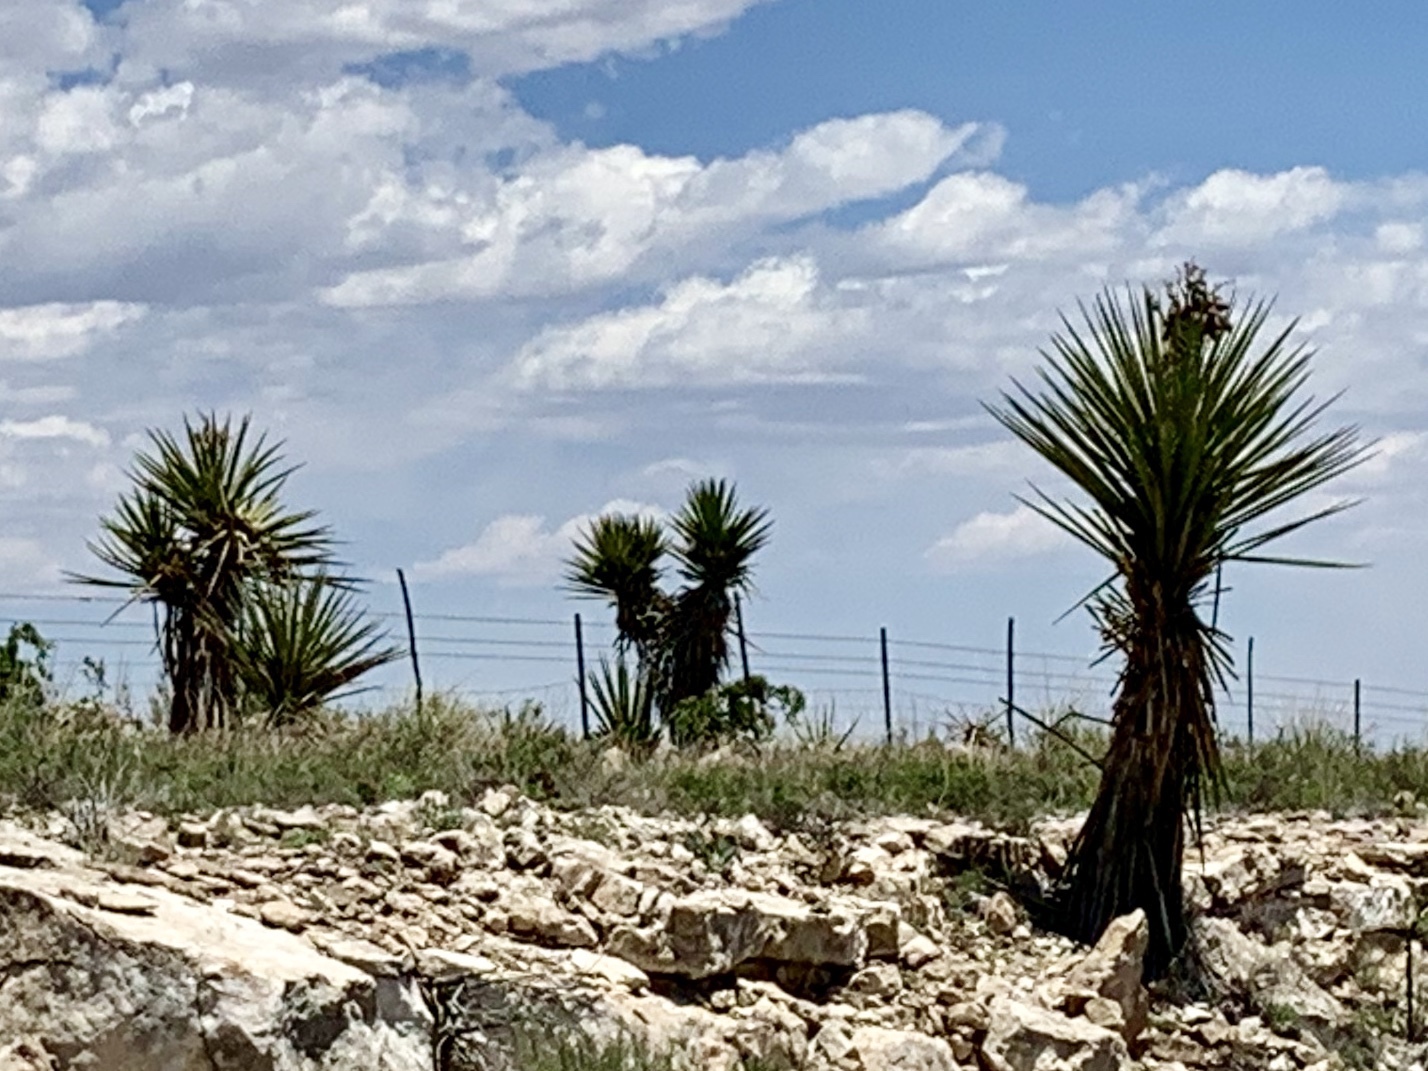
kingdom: Plantae
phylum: Tracheophyta
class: Liliopsida
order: Asparagales
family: Asparagaceae
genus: Yucca
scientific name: Yucca treculiana
